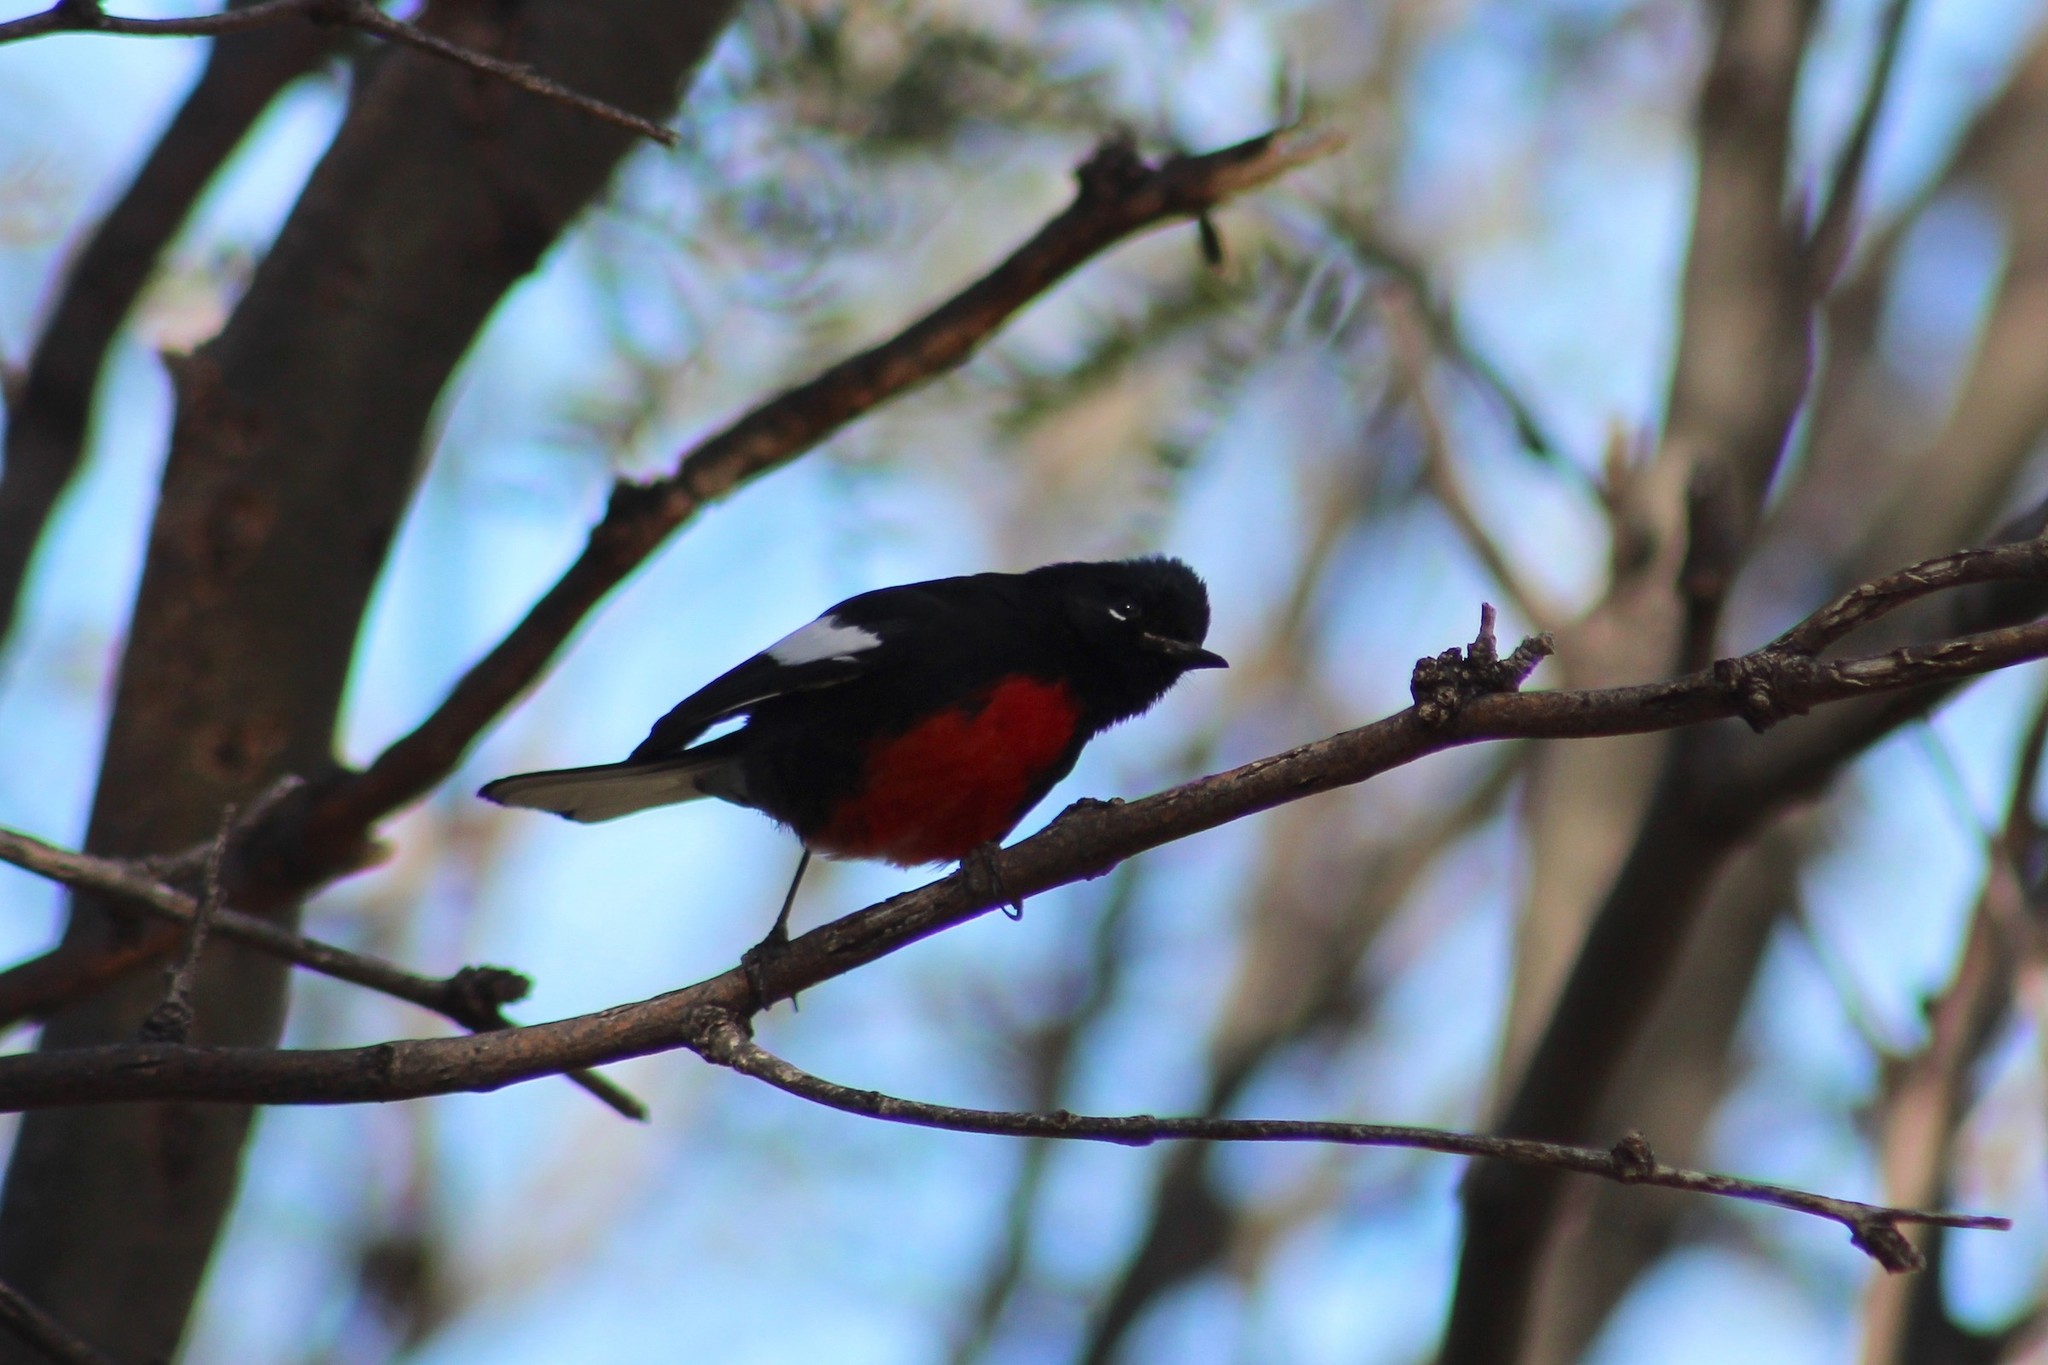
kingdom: Animalia
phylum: Chordata
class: Aves
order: Passeriformes
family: Parulidae
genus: Myioborus
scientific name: Myioborus pictus
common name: Painted whitestart
